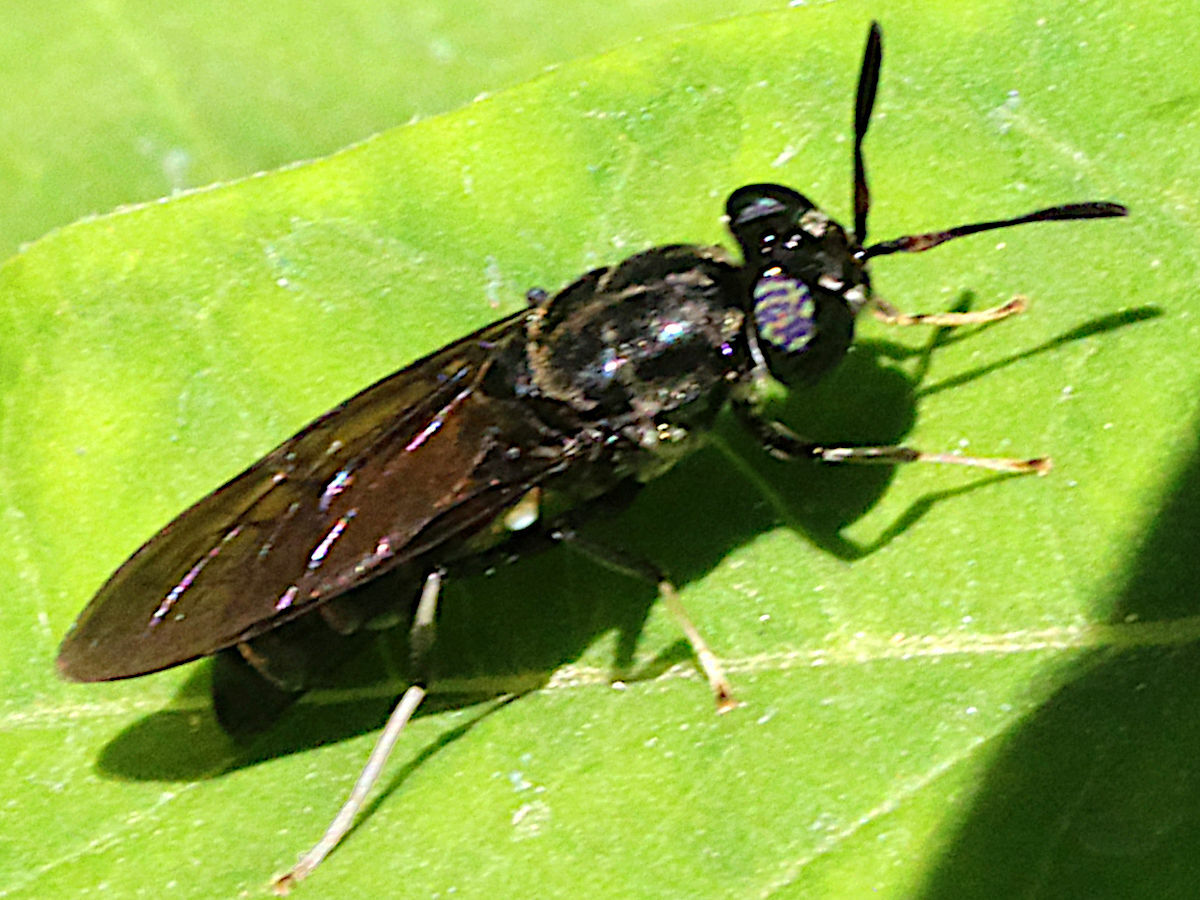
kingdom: Animalia
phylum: Arthropoda
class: Insecta
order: Diptera
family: Stratiomyidae
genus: Hermetia
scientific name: Hermetia illucens
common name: Black soldier fly
